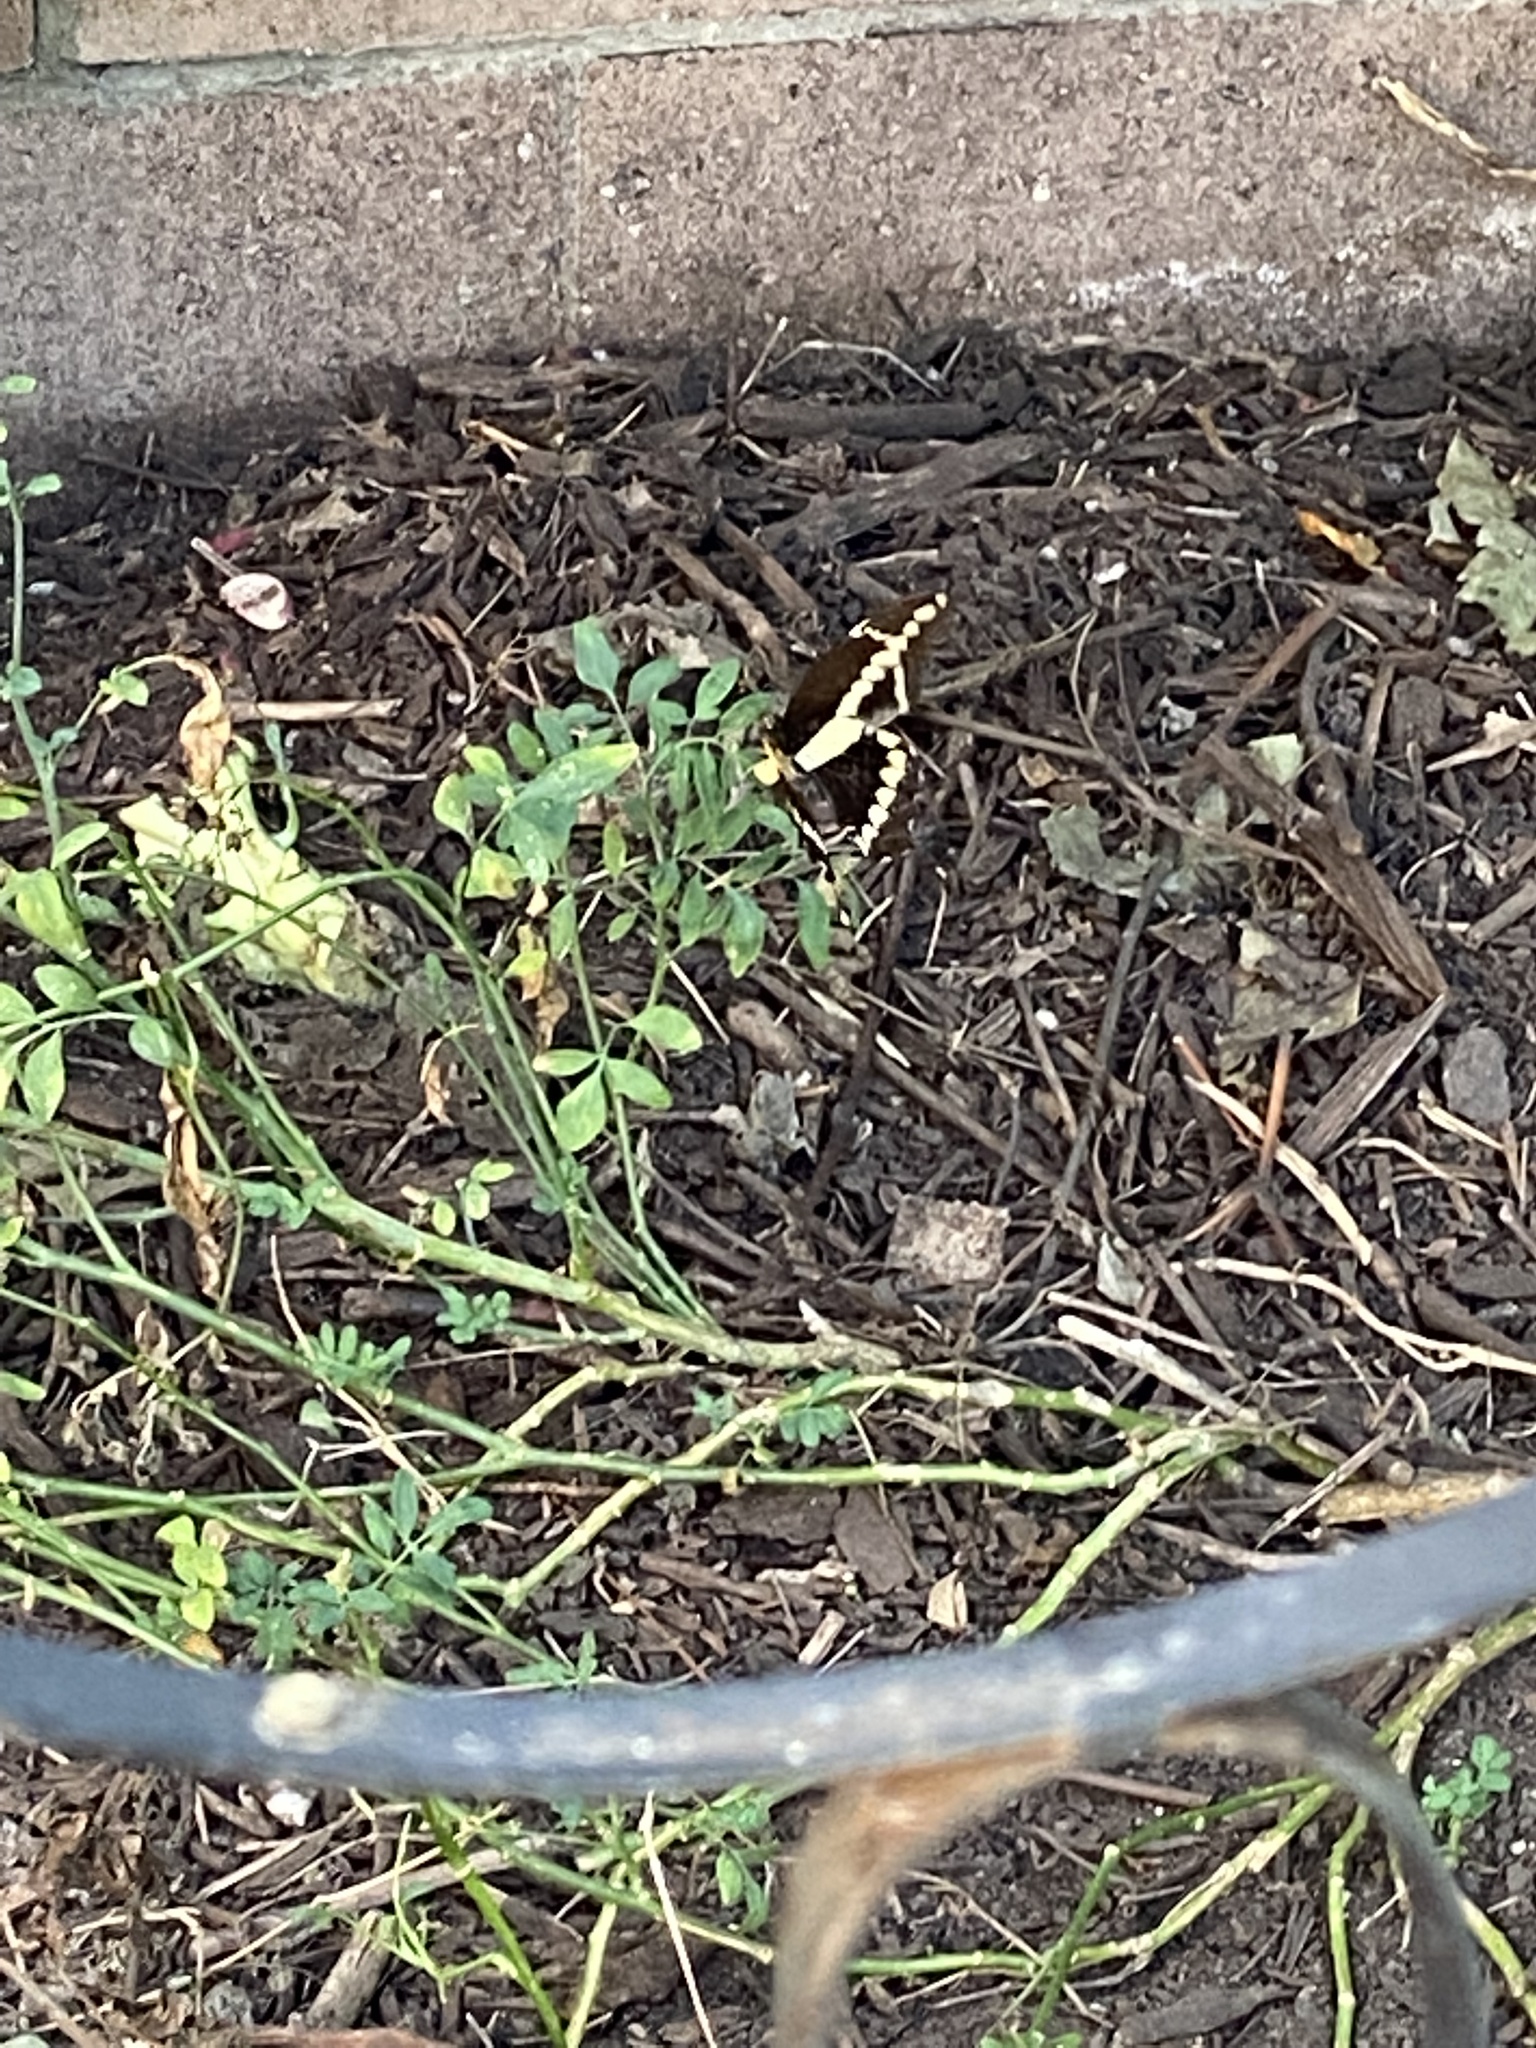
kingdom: Animalia
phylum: Arthropoda
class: Insecta
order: Lepidoptera
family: Papilionidae
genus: Papilio
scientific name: Papilio rumiko
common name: Western giant swallowtail
